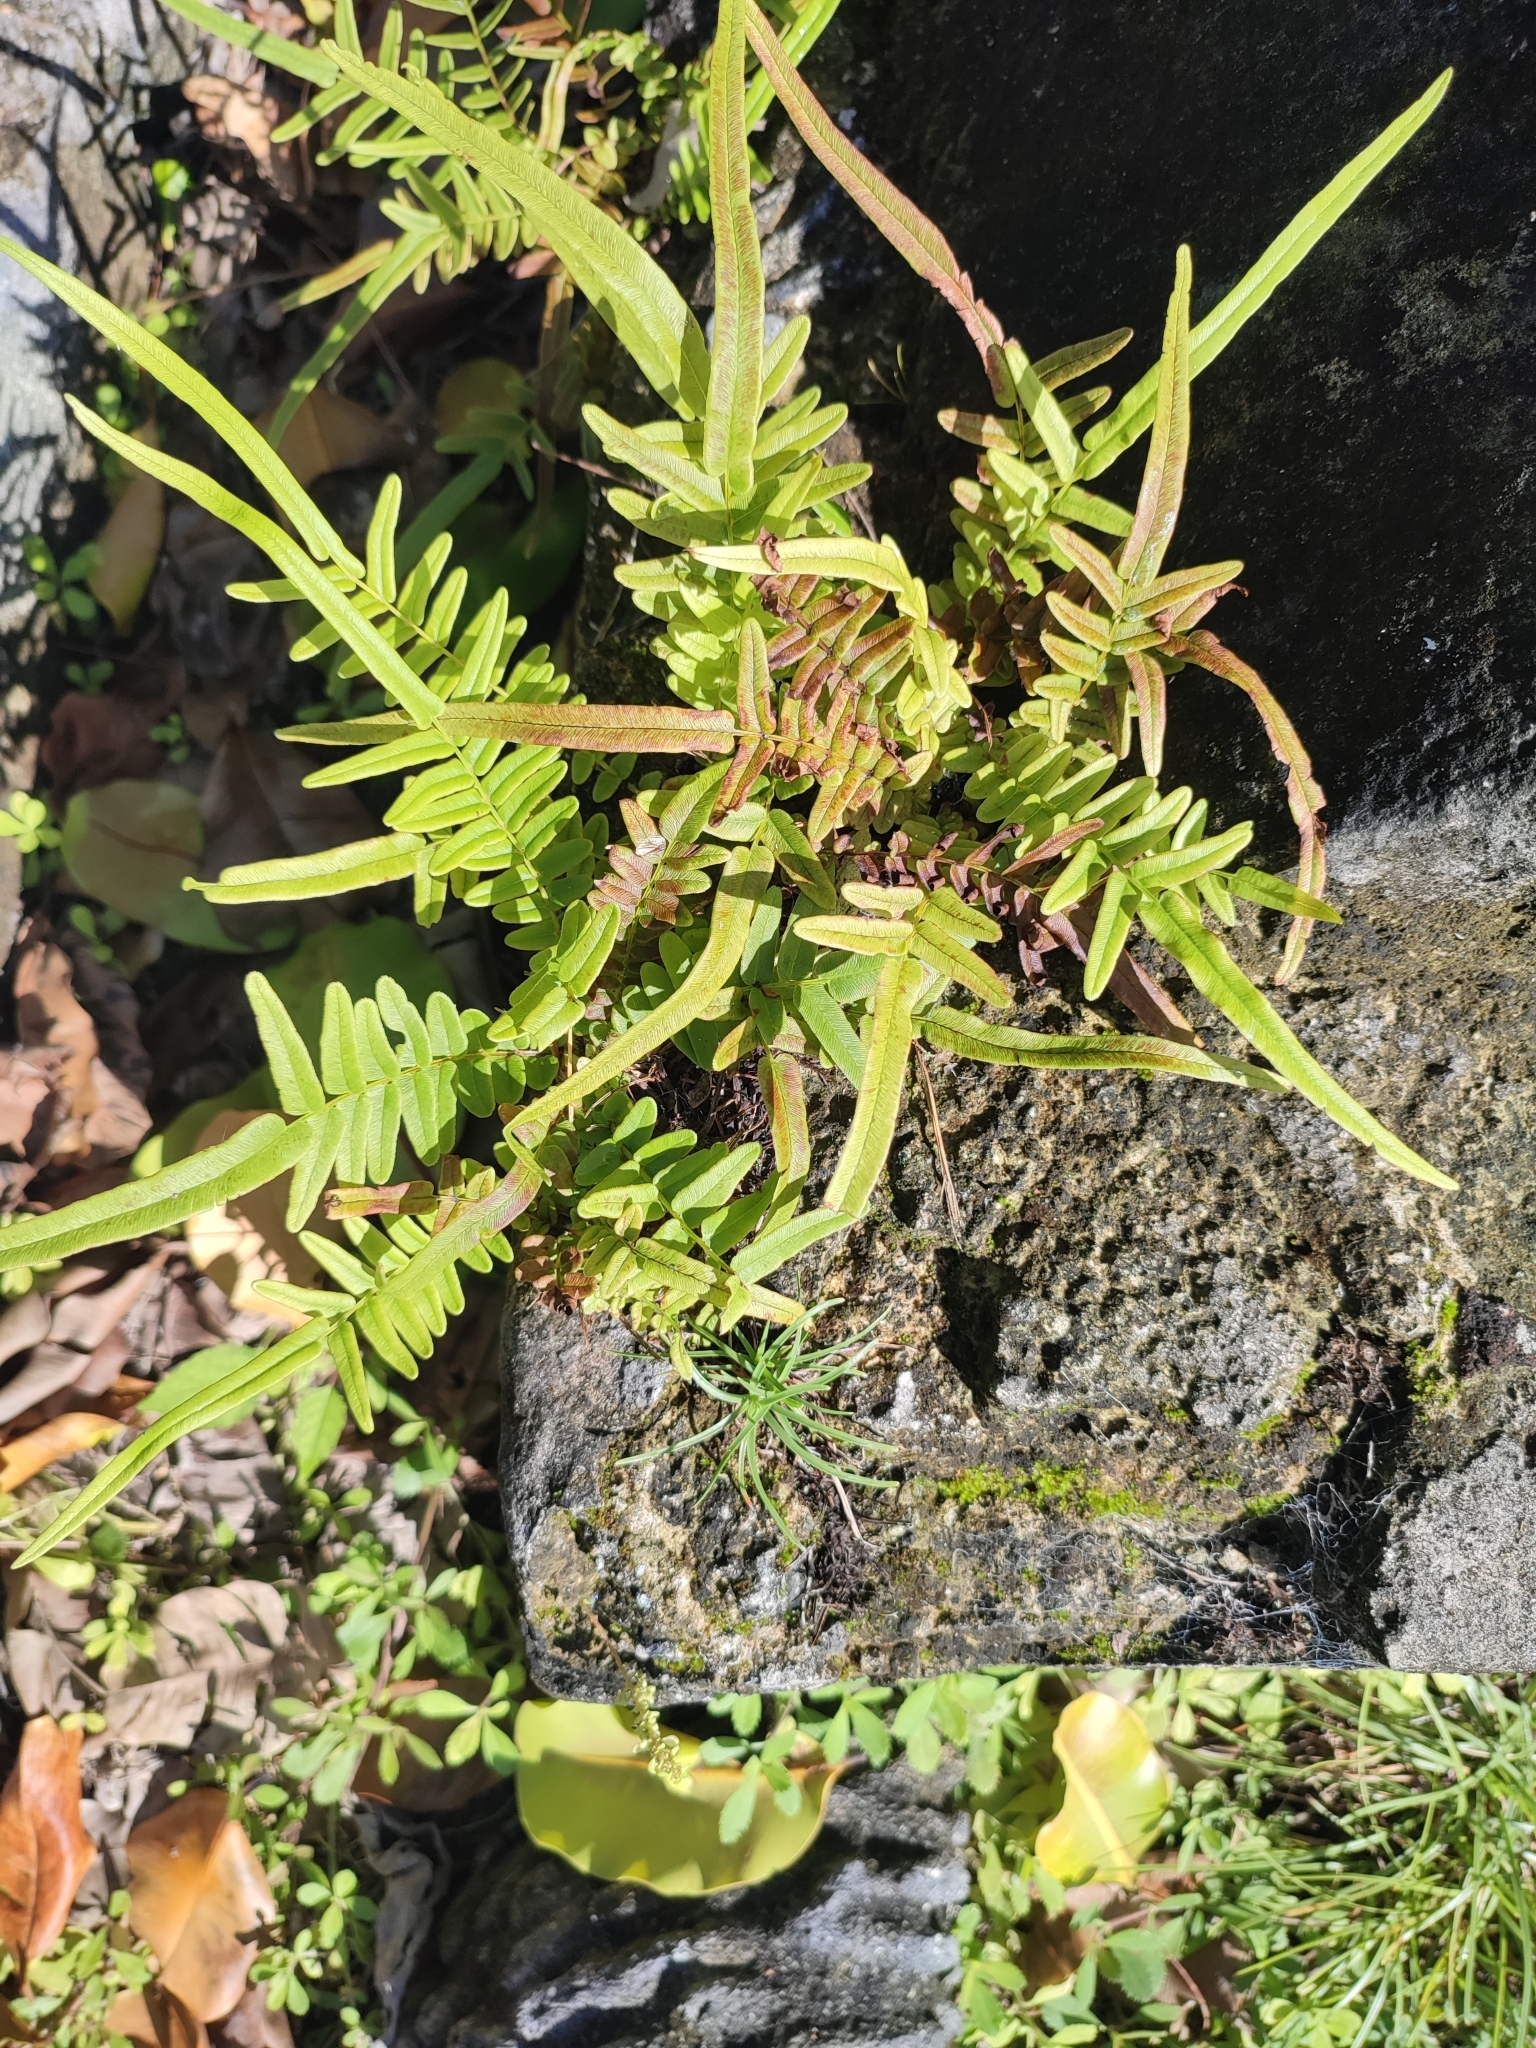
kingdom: Plantae
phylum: Tracheophyta
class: Polypodiopsida
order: Polypodiales
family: Pteridaceae
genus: Pteris
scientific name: Pteris vittata
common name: Ladder brake
